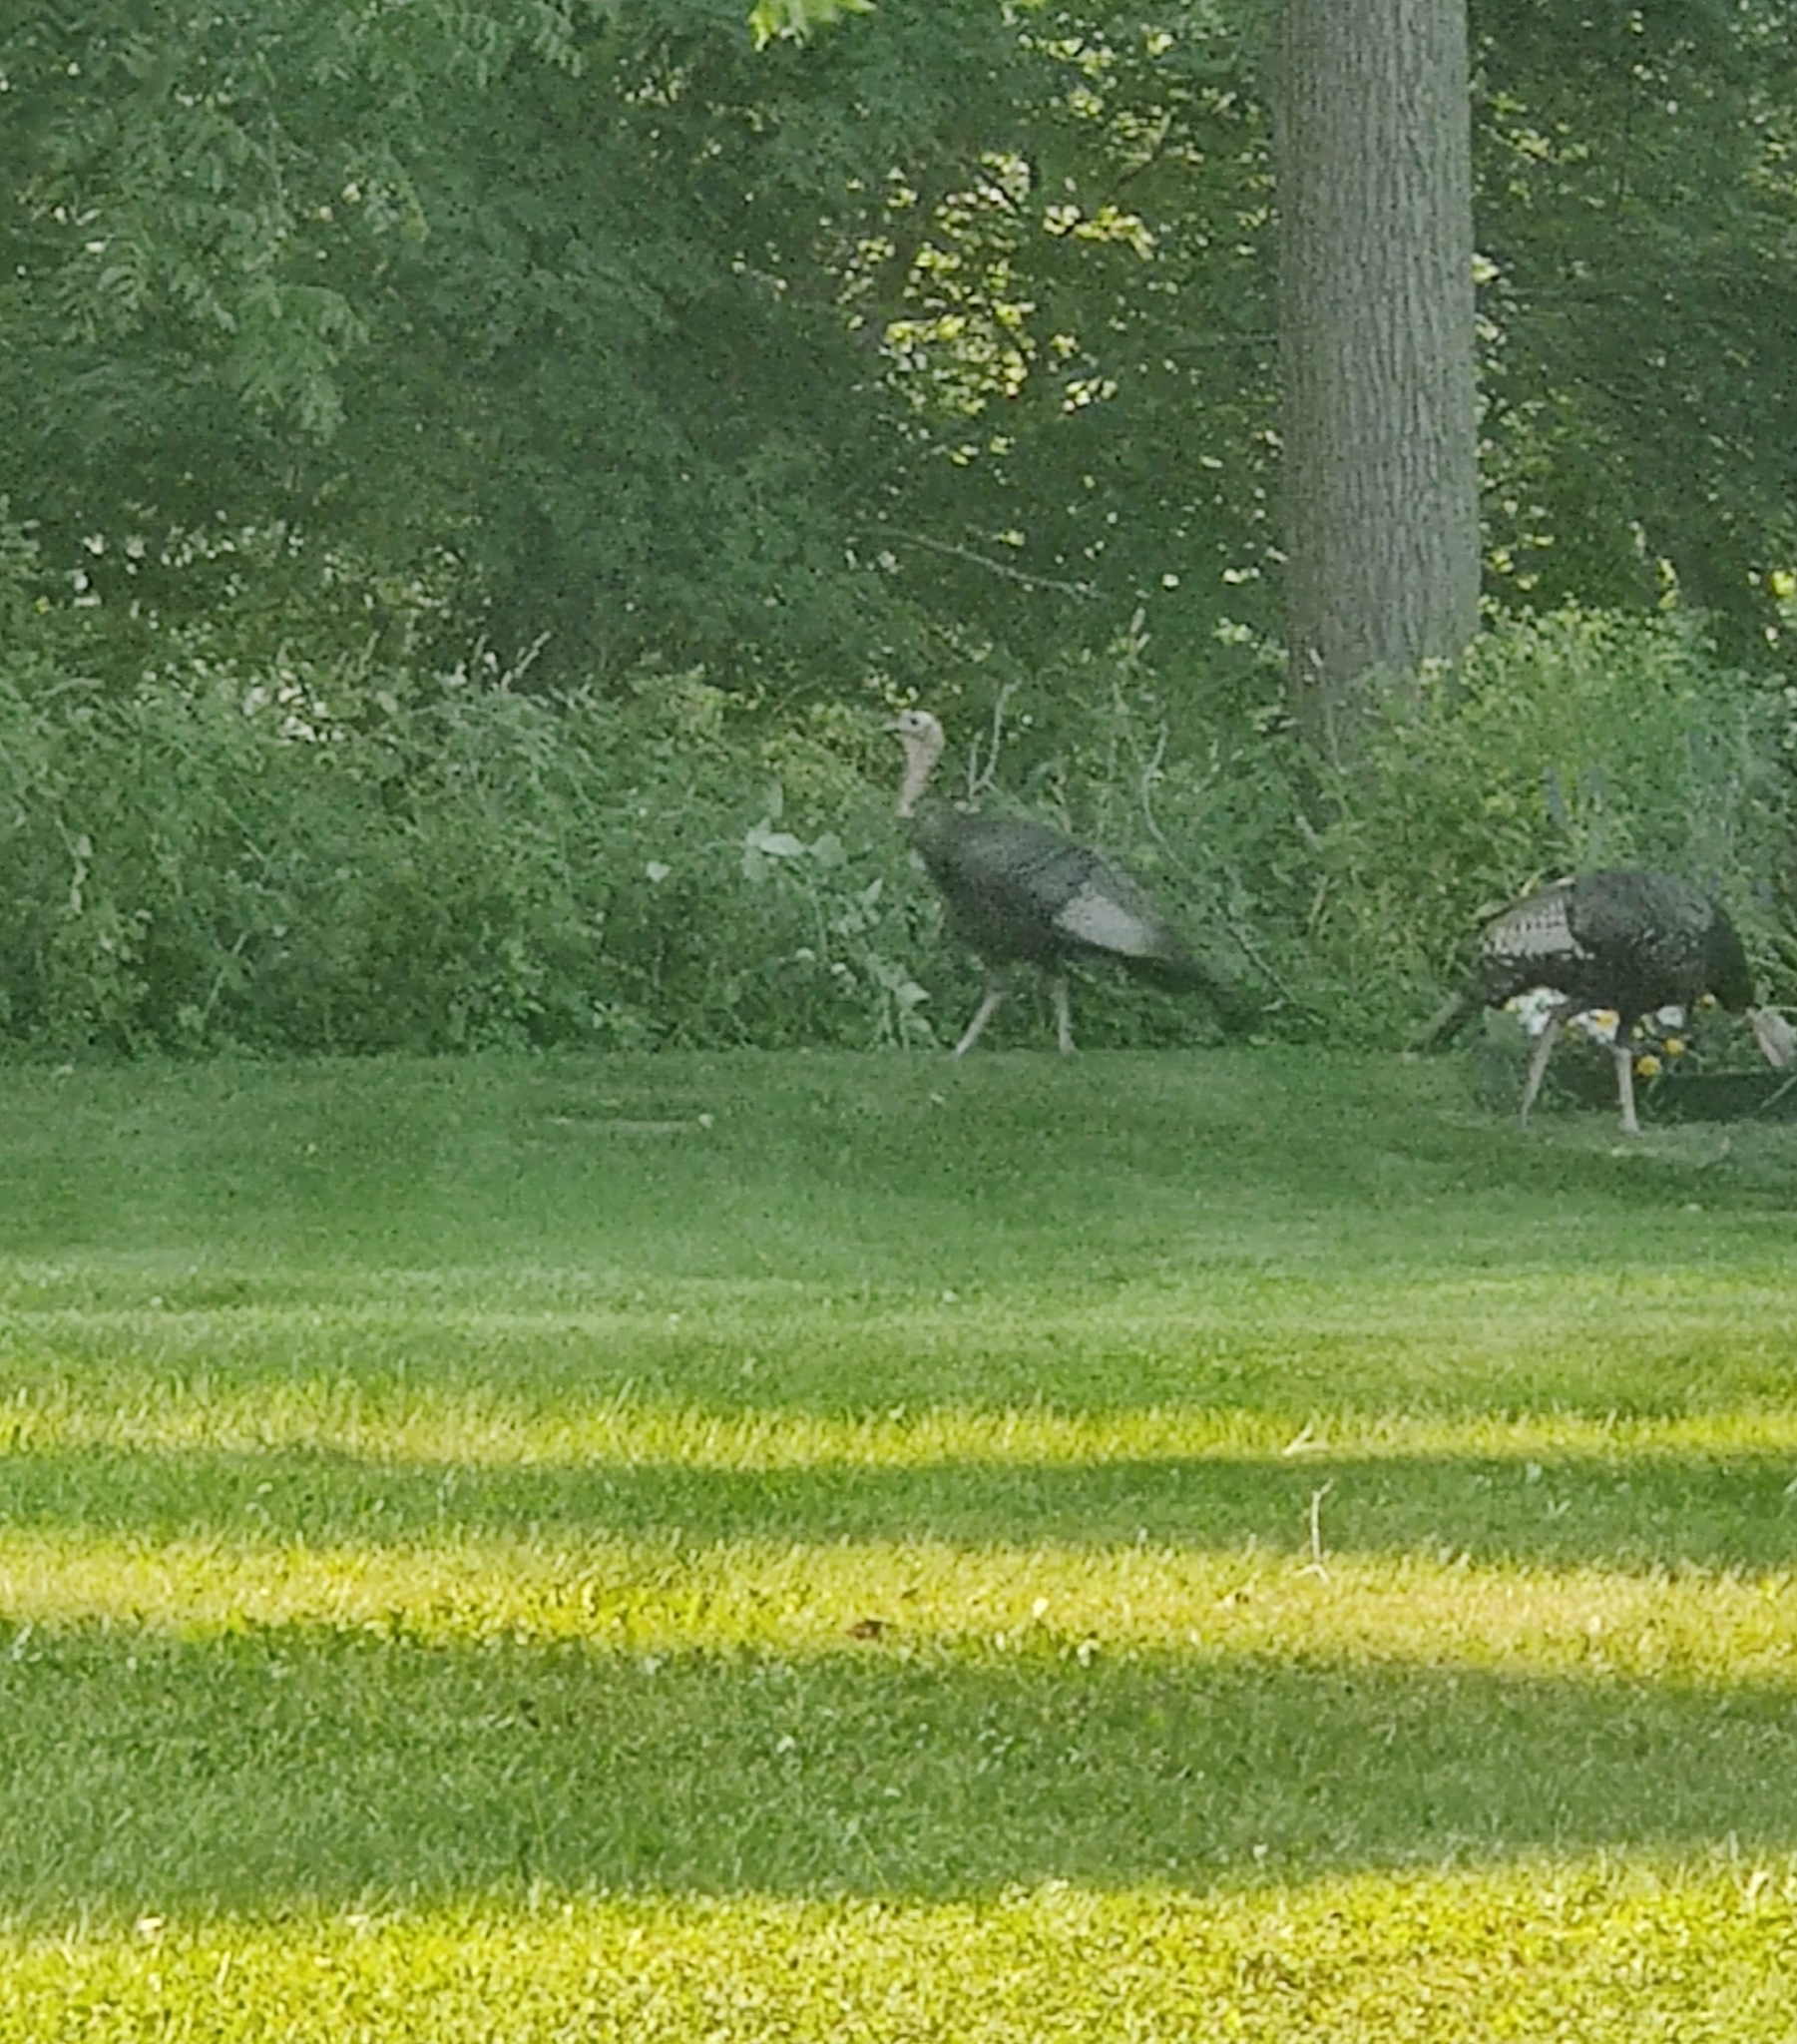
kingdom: Animalia
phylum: Chordata
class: Aves
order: Galliformes
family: Phasianidae
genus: Meleagris
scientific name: Meleagris gallopavo
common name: Wild turkey
